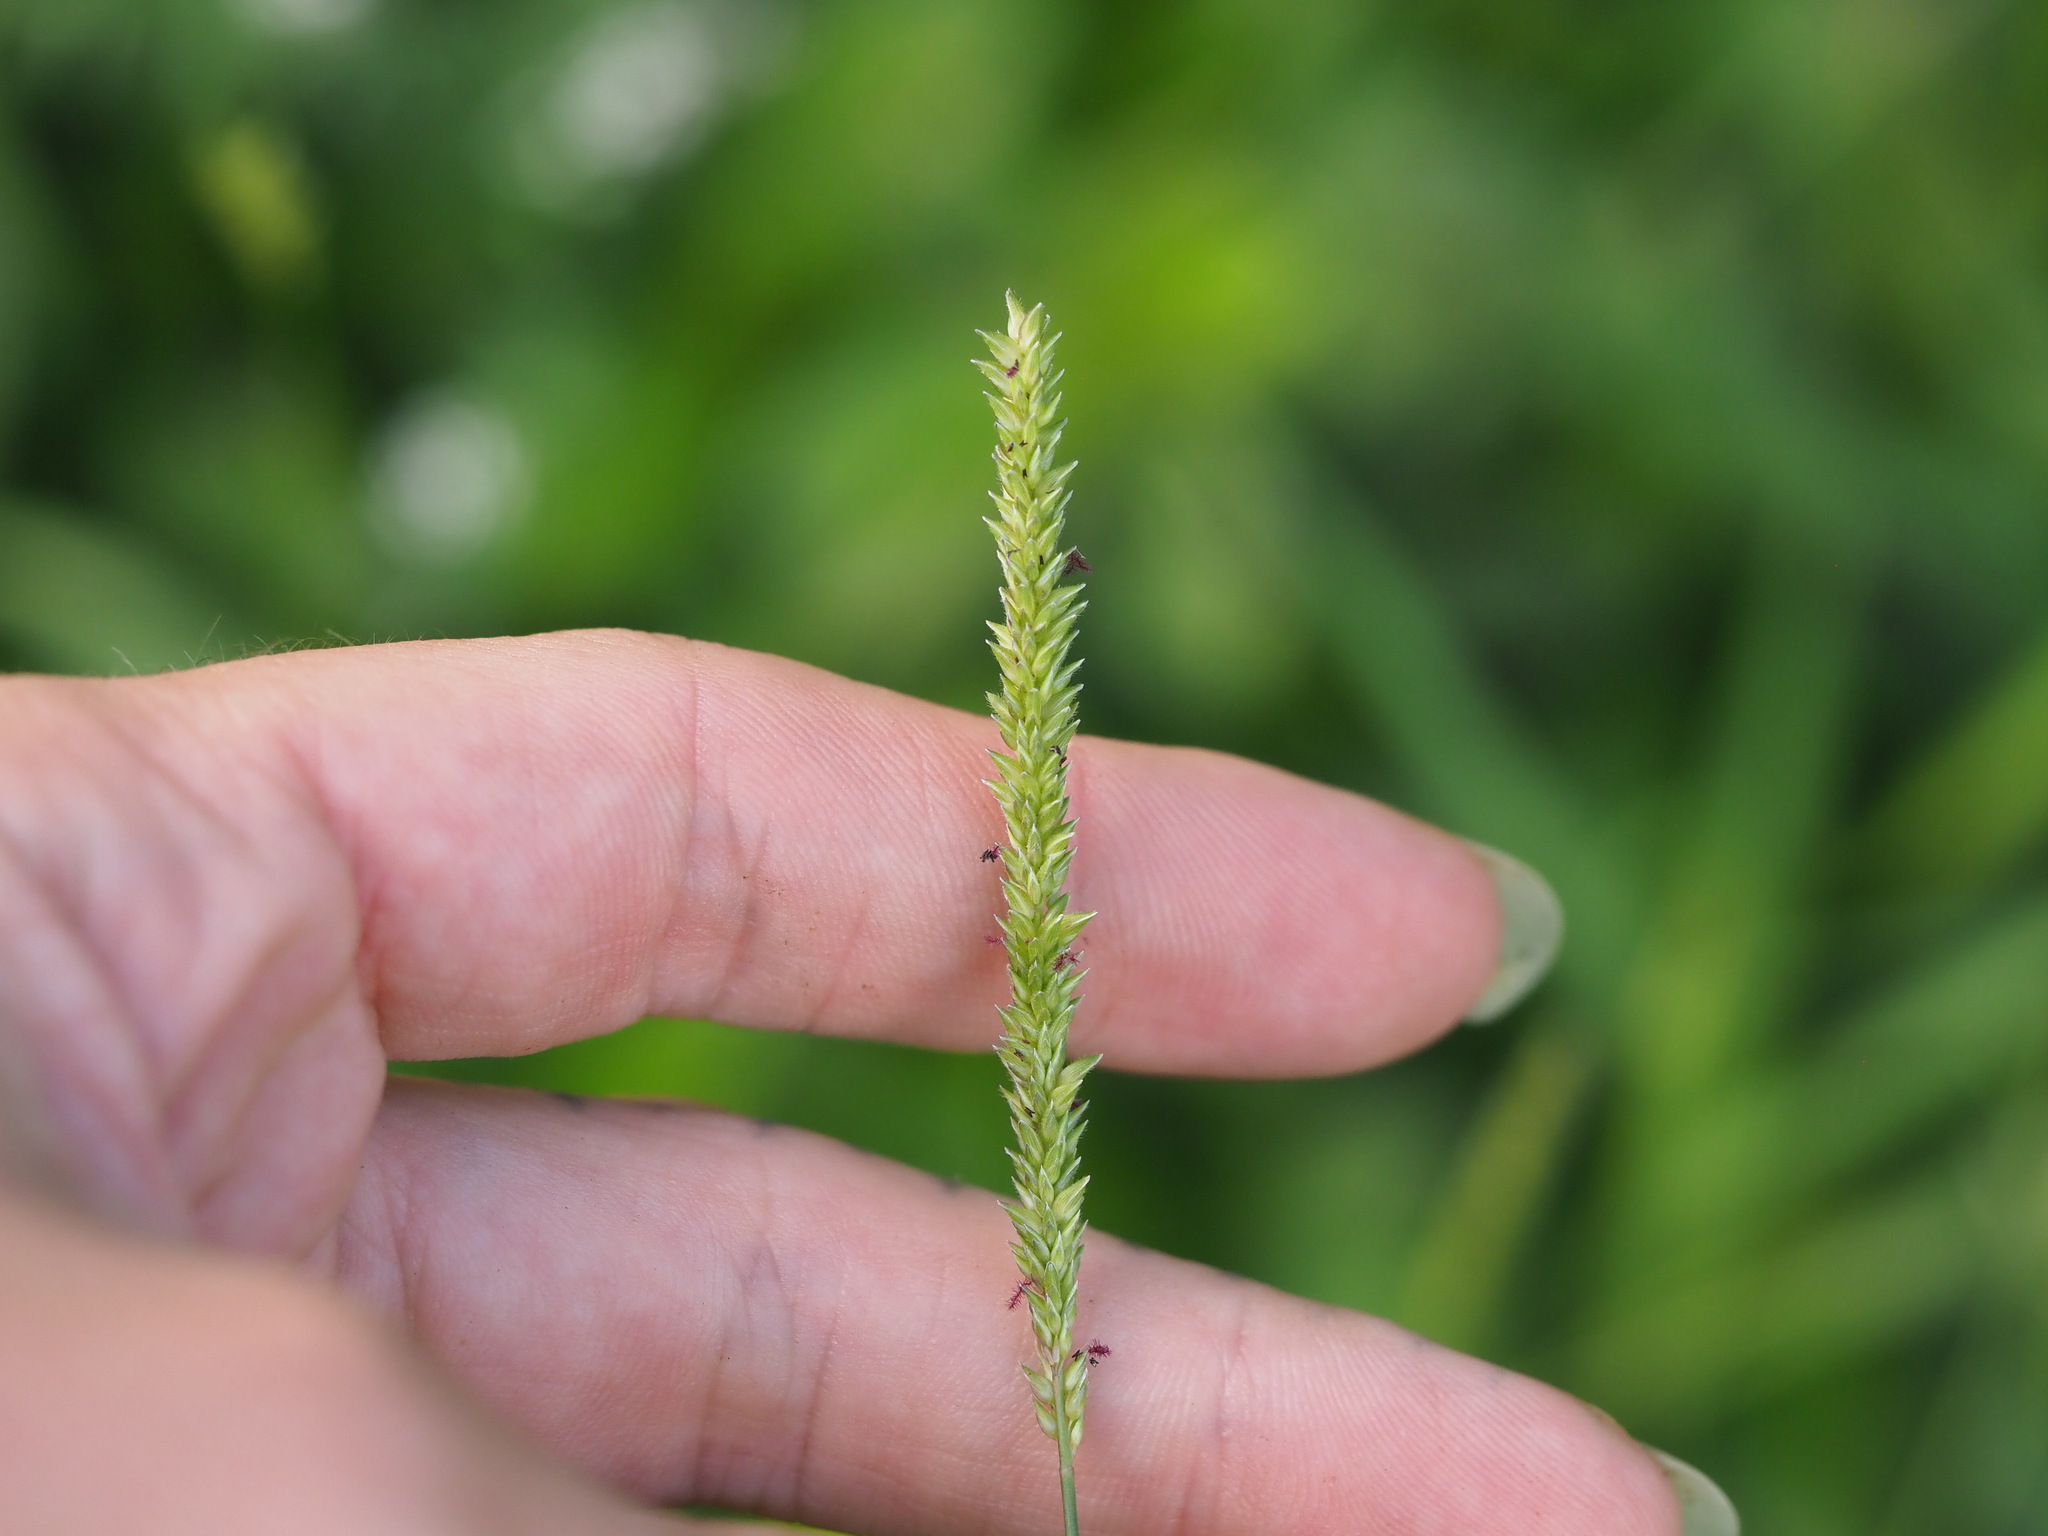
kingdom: Plantae
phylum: Tracheophyta
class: Liliopsida
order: Poales
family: Poaceae
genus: Sacciolepis
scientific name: Sacciolepis indica
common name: Glenwoodgrass
